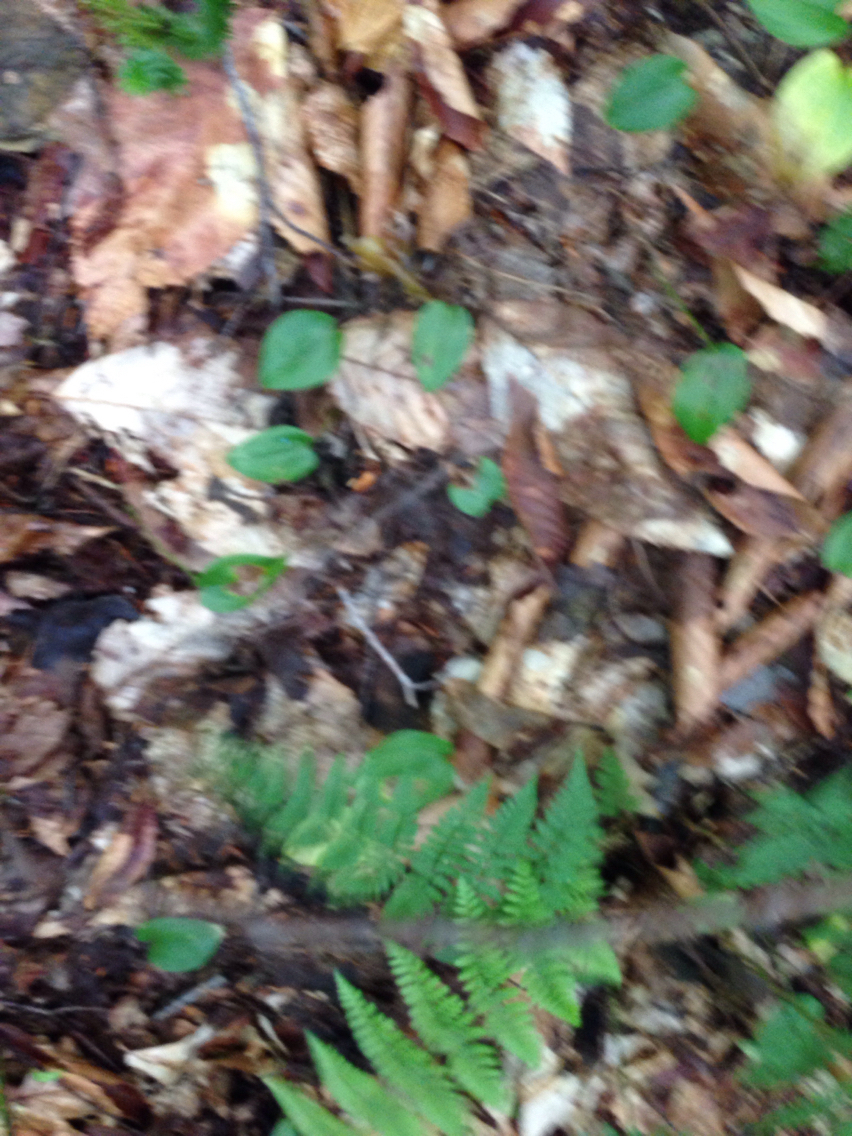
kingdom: Plantae
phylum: Tracheophyta
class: Liliopsida
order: Asparagales
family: Asparagaceae
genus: Maianthemum
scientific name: Maianthemum canadense
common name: False lily-of-the-valley
